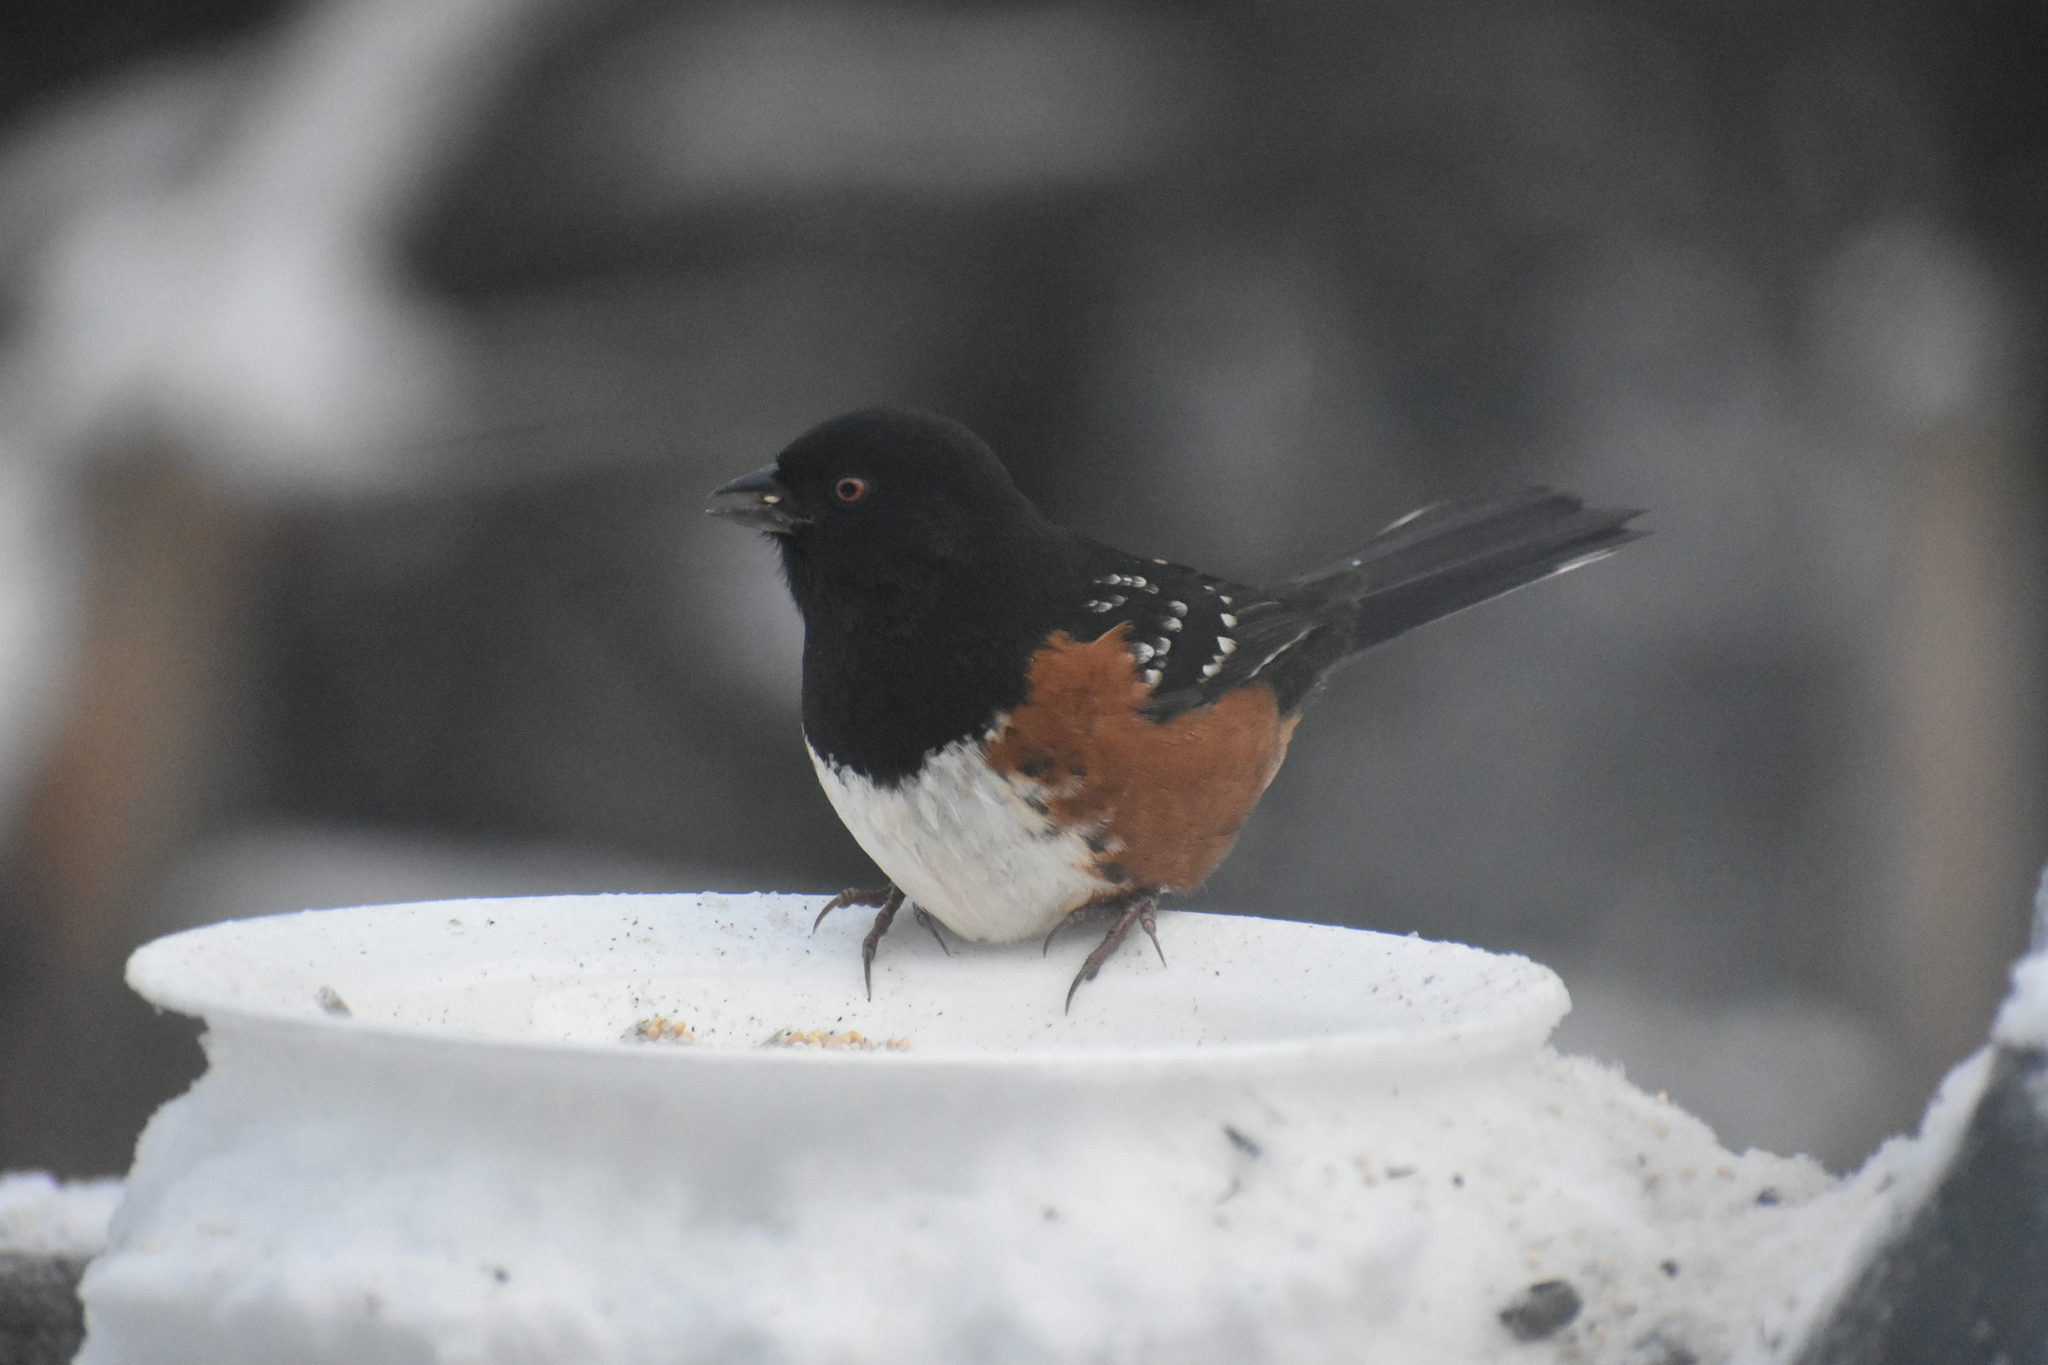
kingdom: Animalia
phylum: Chordata
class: Aves
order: Passeriformes
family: Passerellidae
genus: Pipilo
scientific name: Pipilo maculatus
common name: Spotted towhee
